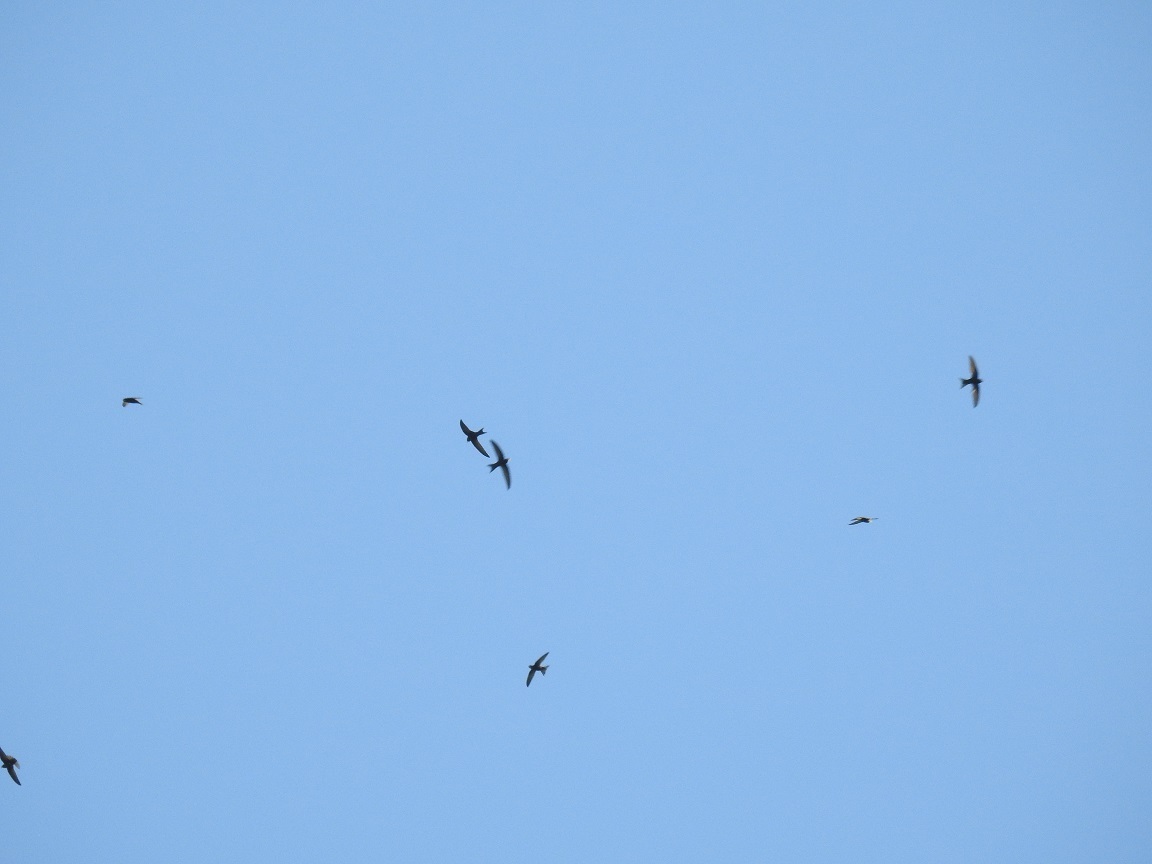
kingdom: Animalia
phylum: Chordata
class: Aves
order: Apodiformes
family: Apodidae
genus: Apus
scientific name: Apus apus
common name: Common swift
